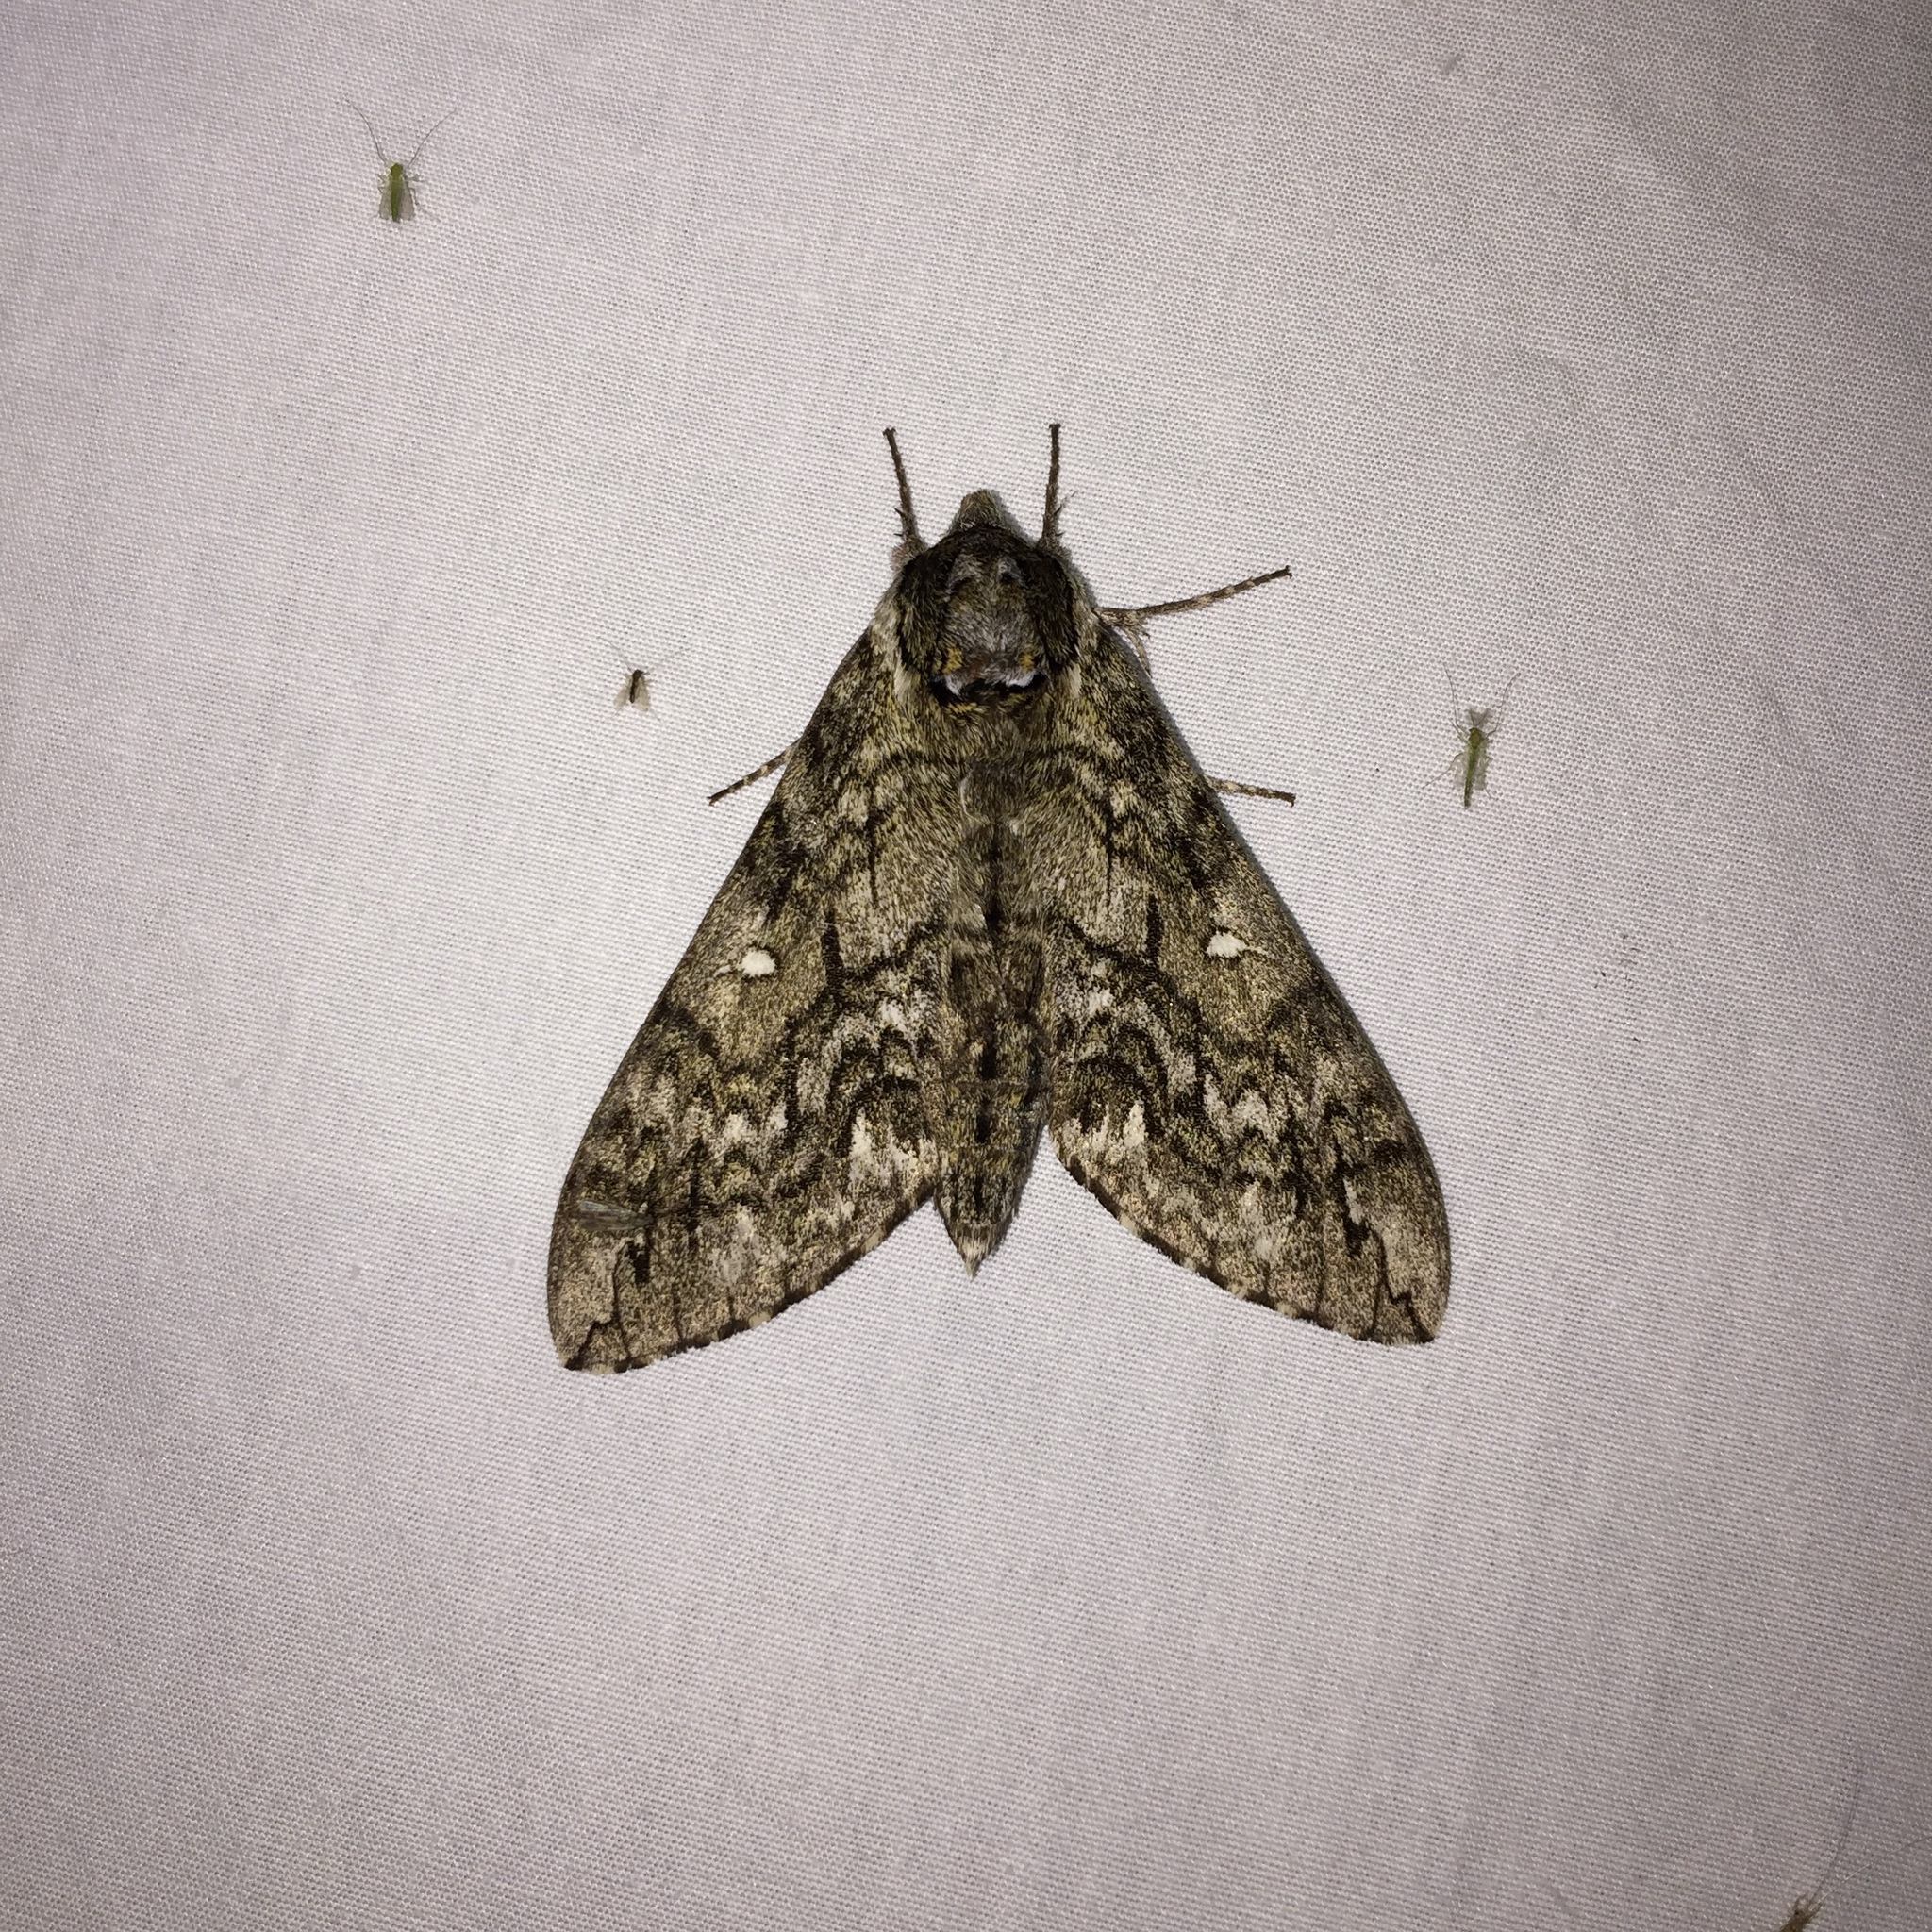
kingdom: Animalia
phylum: Arthropoda
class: Insecta
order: Lepidoptera
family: Sphingidae
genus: Ceratomia
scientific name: Ceratomia undulosa
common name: Waved sphinx
